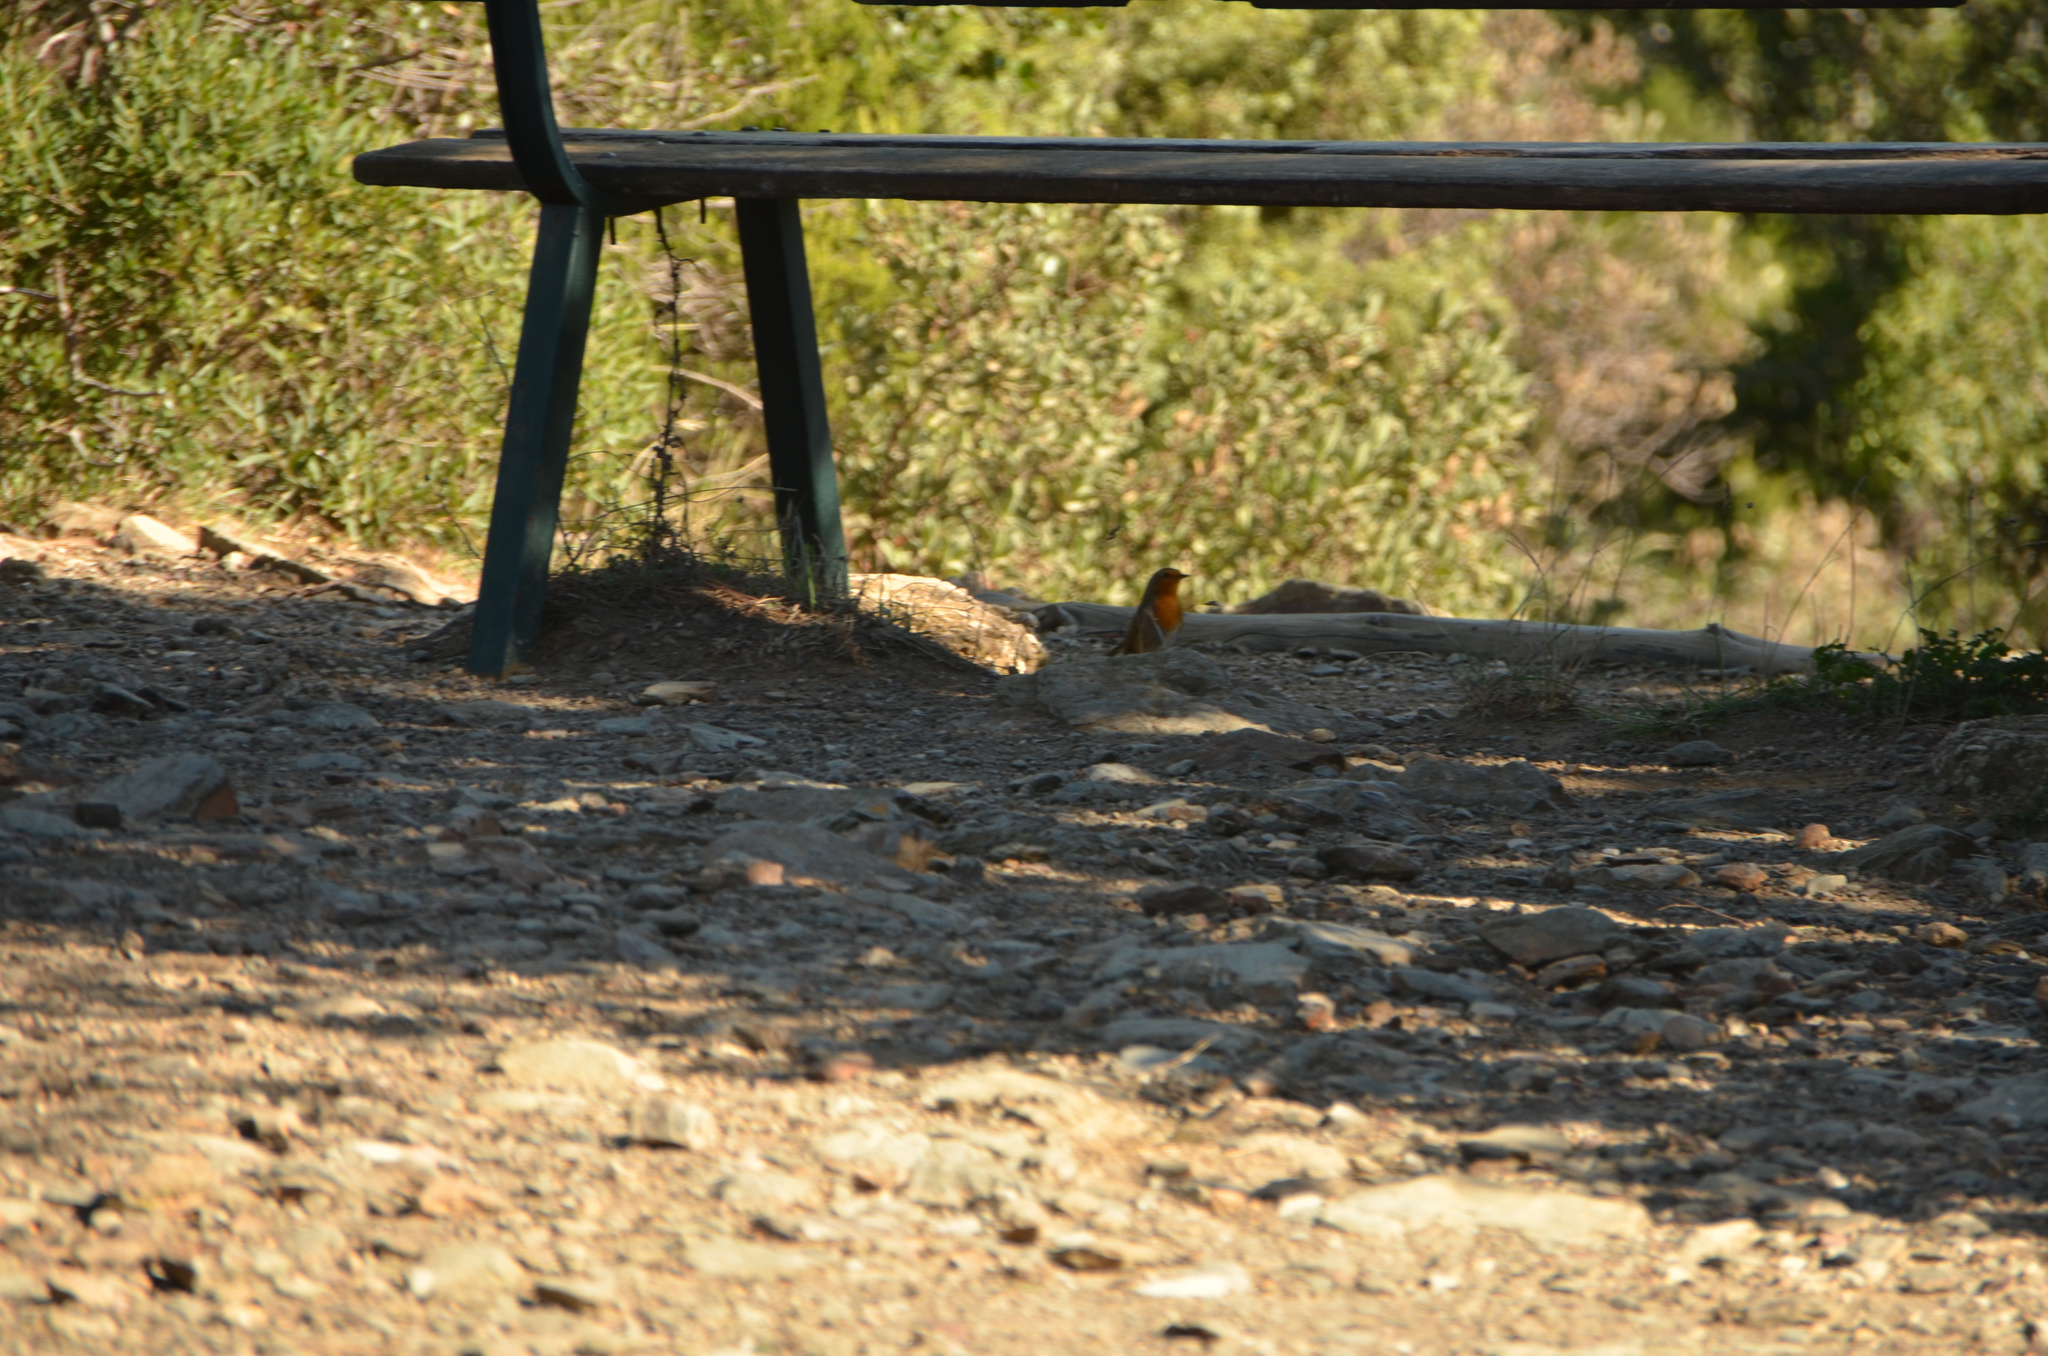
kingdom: Animalia
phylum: Chordata
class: Aves
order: Passeriformes
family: Muscicapidae
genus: Erithacus
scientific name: Erithacus rubecula
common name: European robin
